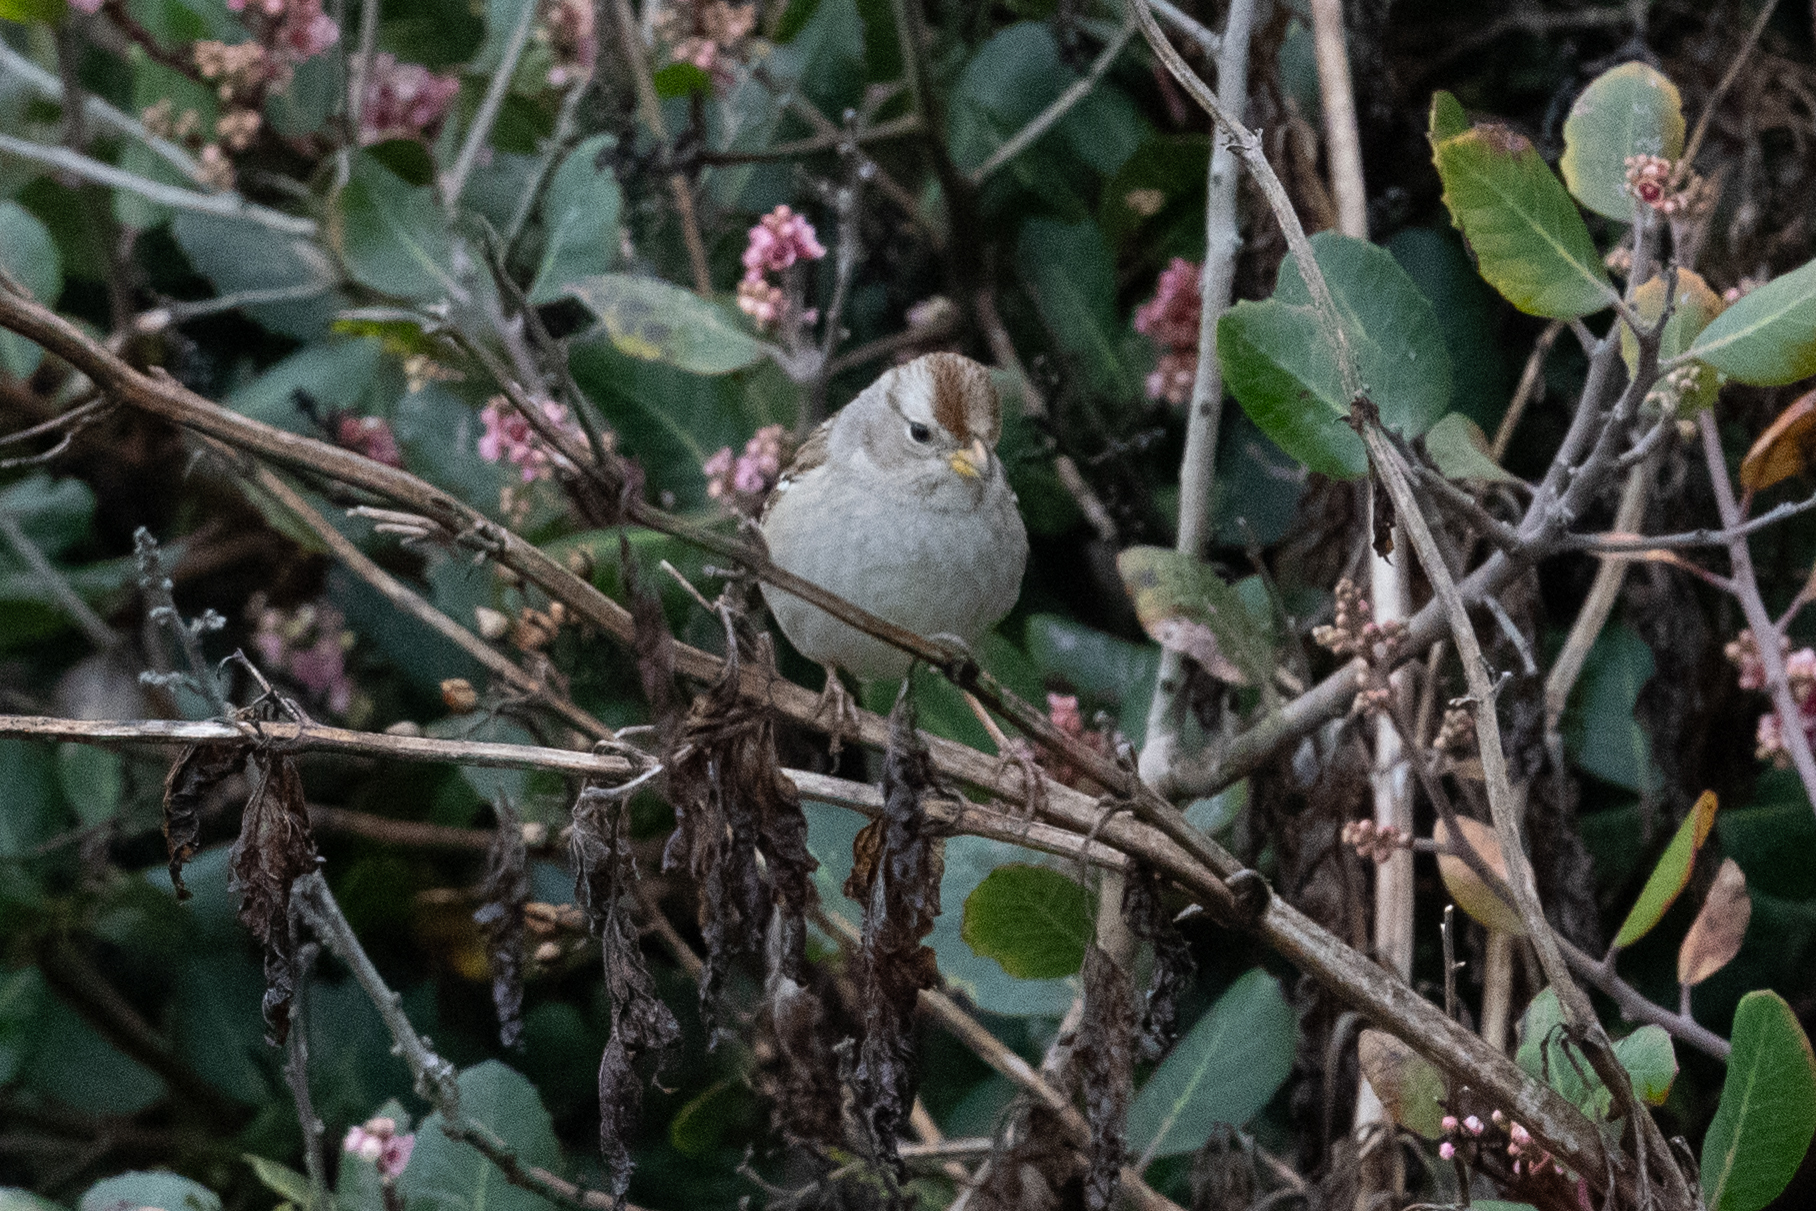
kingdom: Animalia
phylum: Chordata
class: Aves
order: Passeriformes
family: Passerellidae
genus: Zonotrichia
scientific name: Zonotrichia leucophrys
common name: White-crowned sparrow
